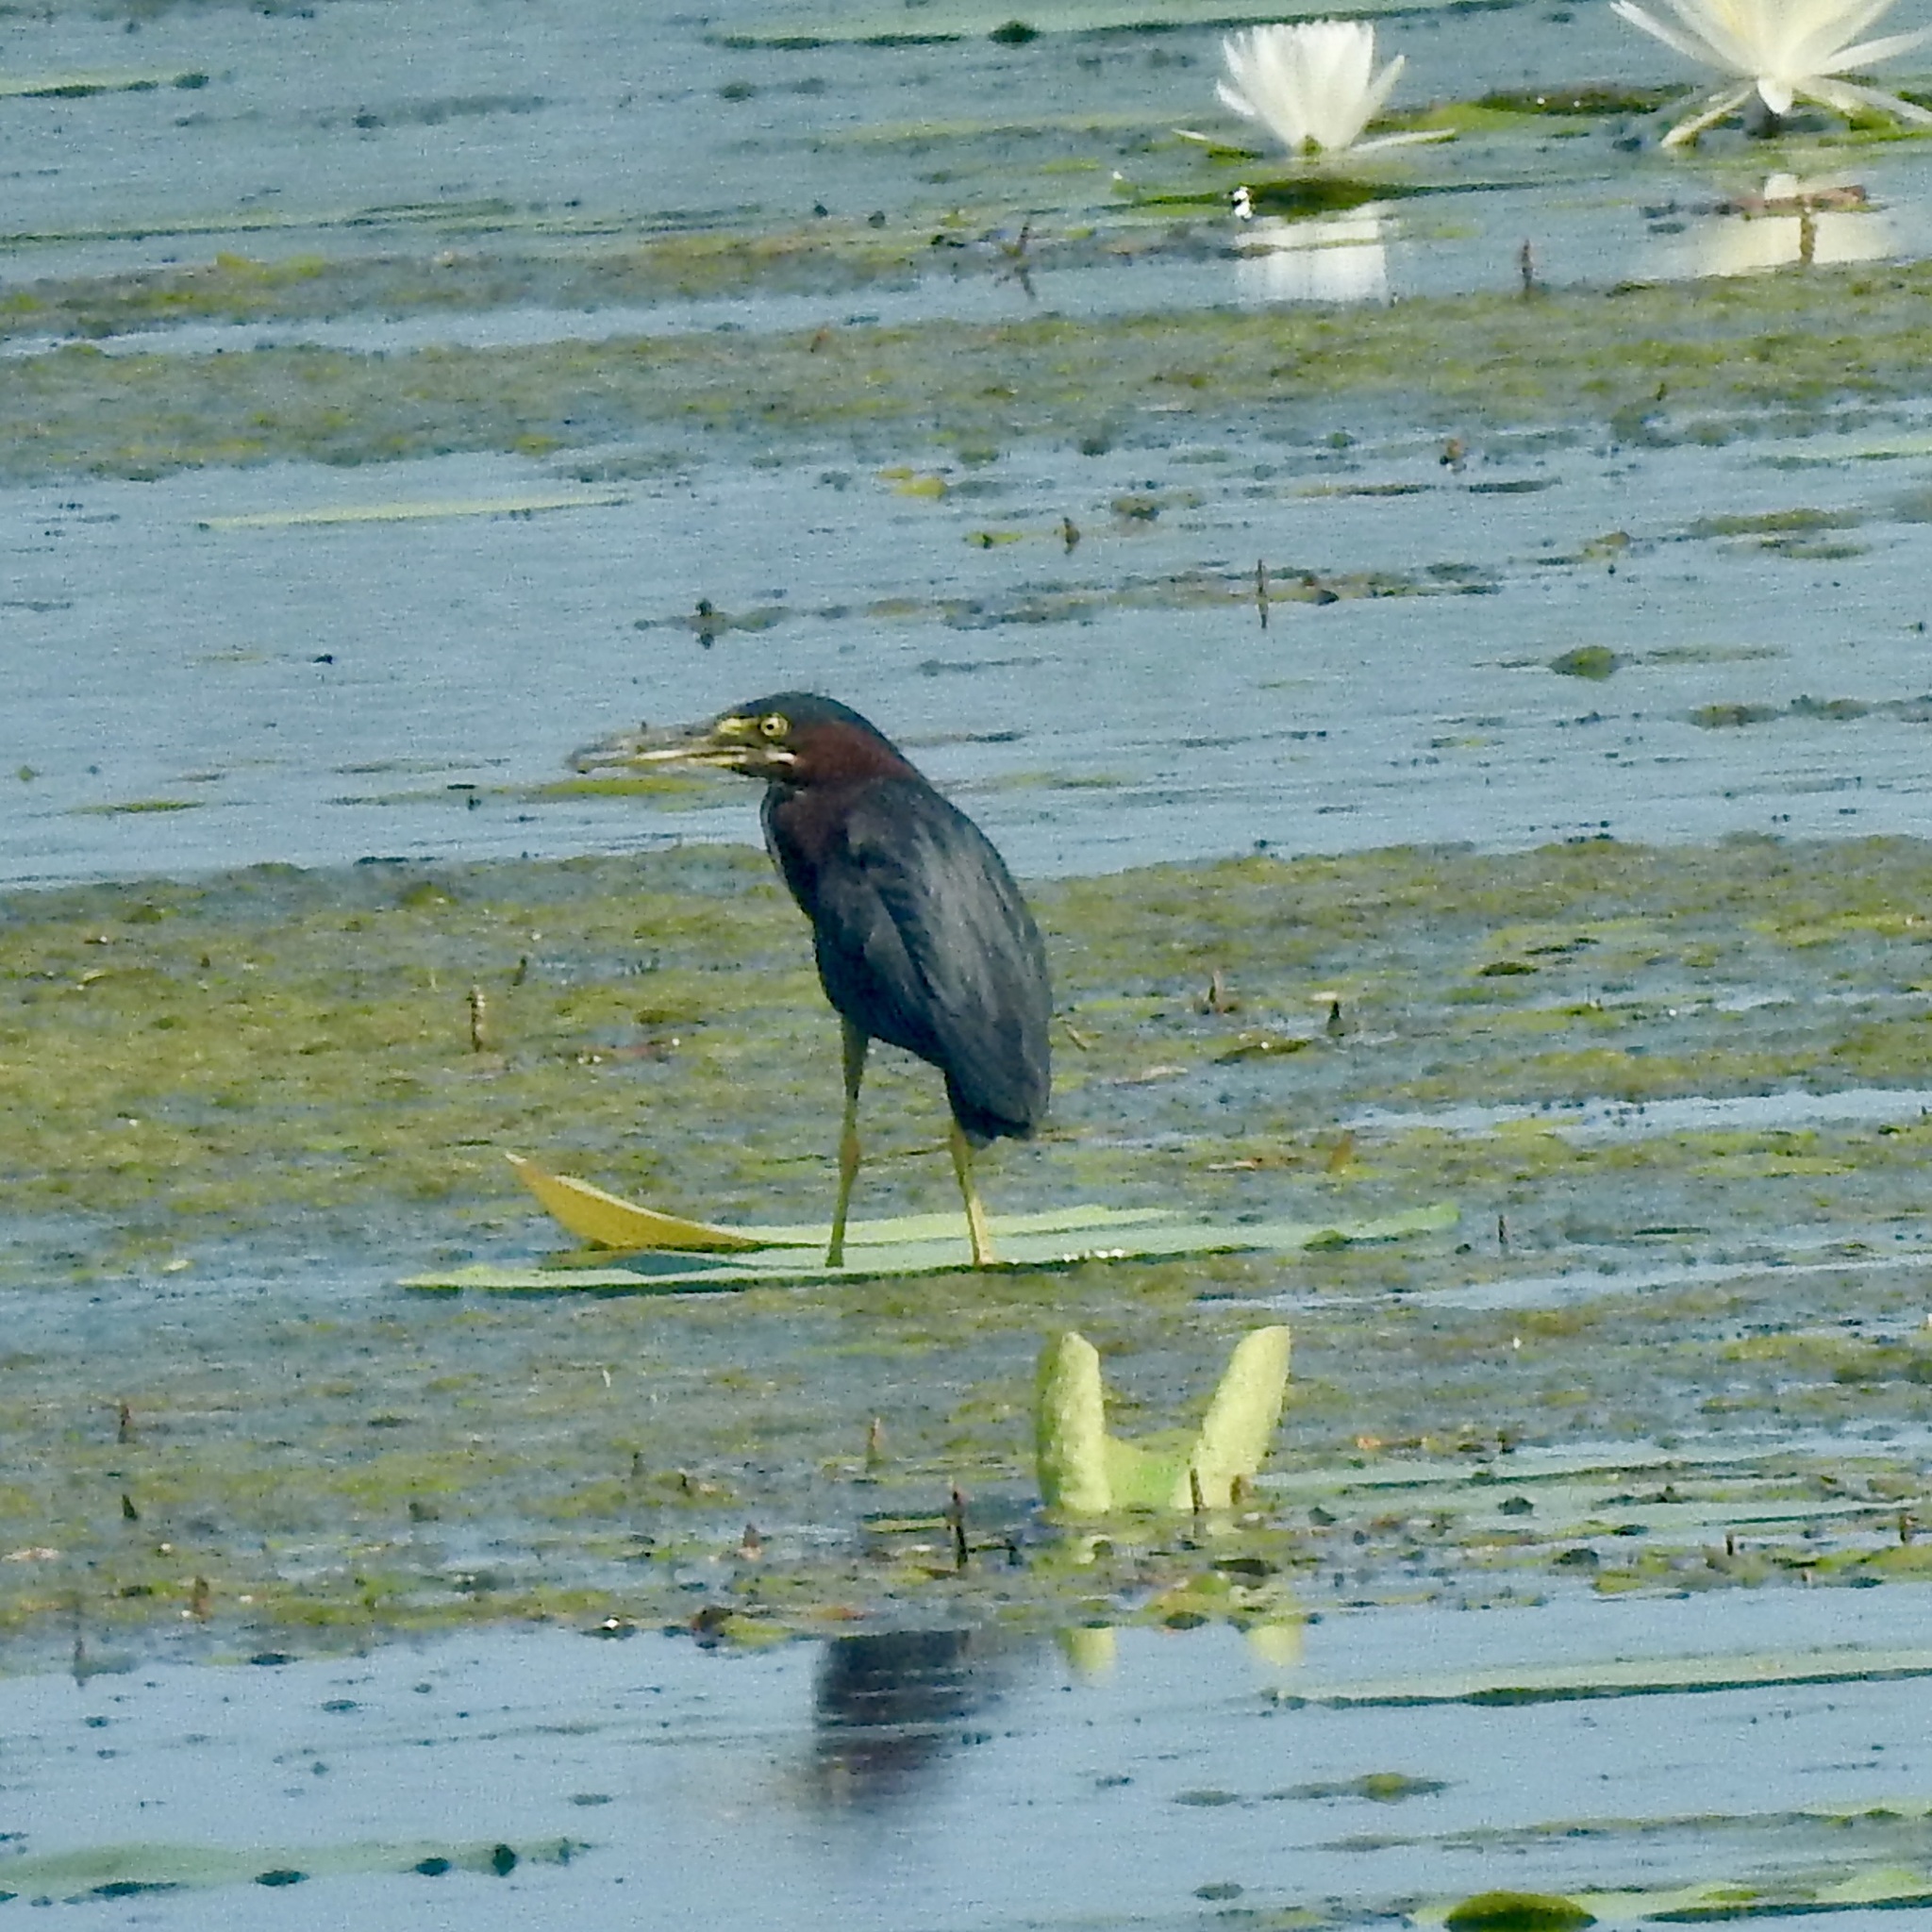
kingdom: Animalia
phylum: Chordata
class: Aves
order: Pelecaniformes
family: Ardeidae
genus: Butorides
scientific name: Butorides virescens
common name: Green heron
